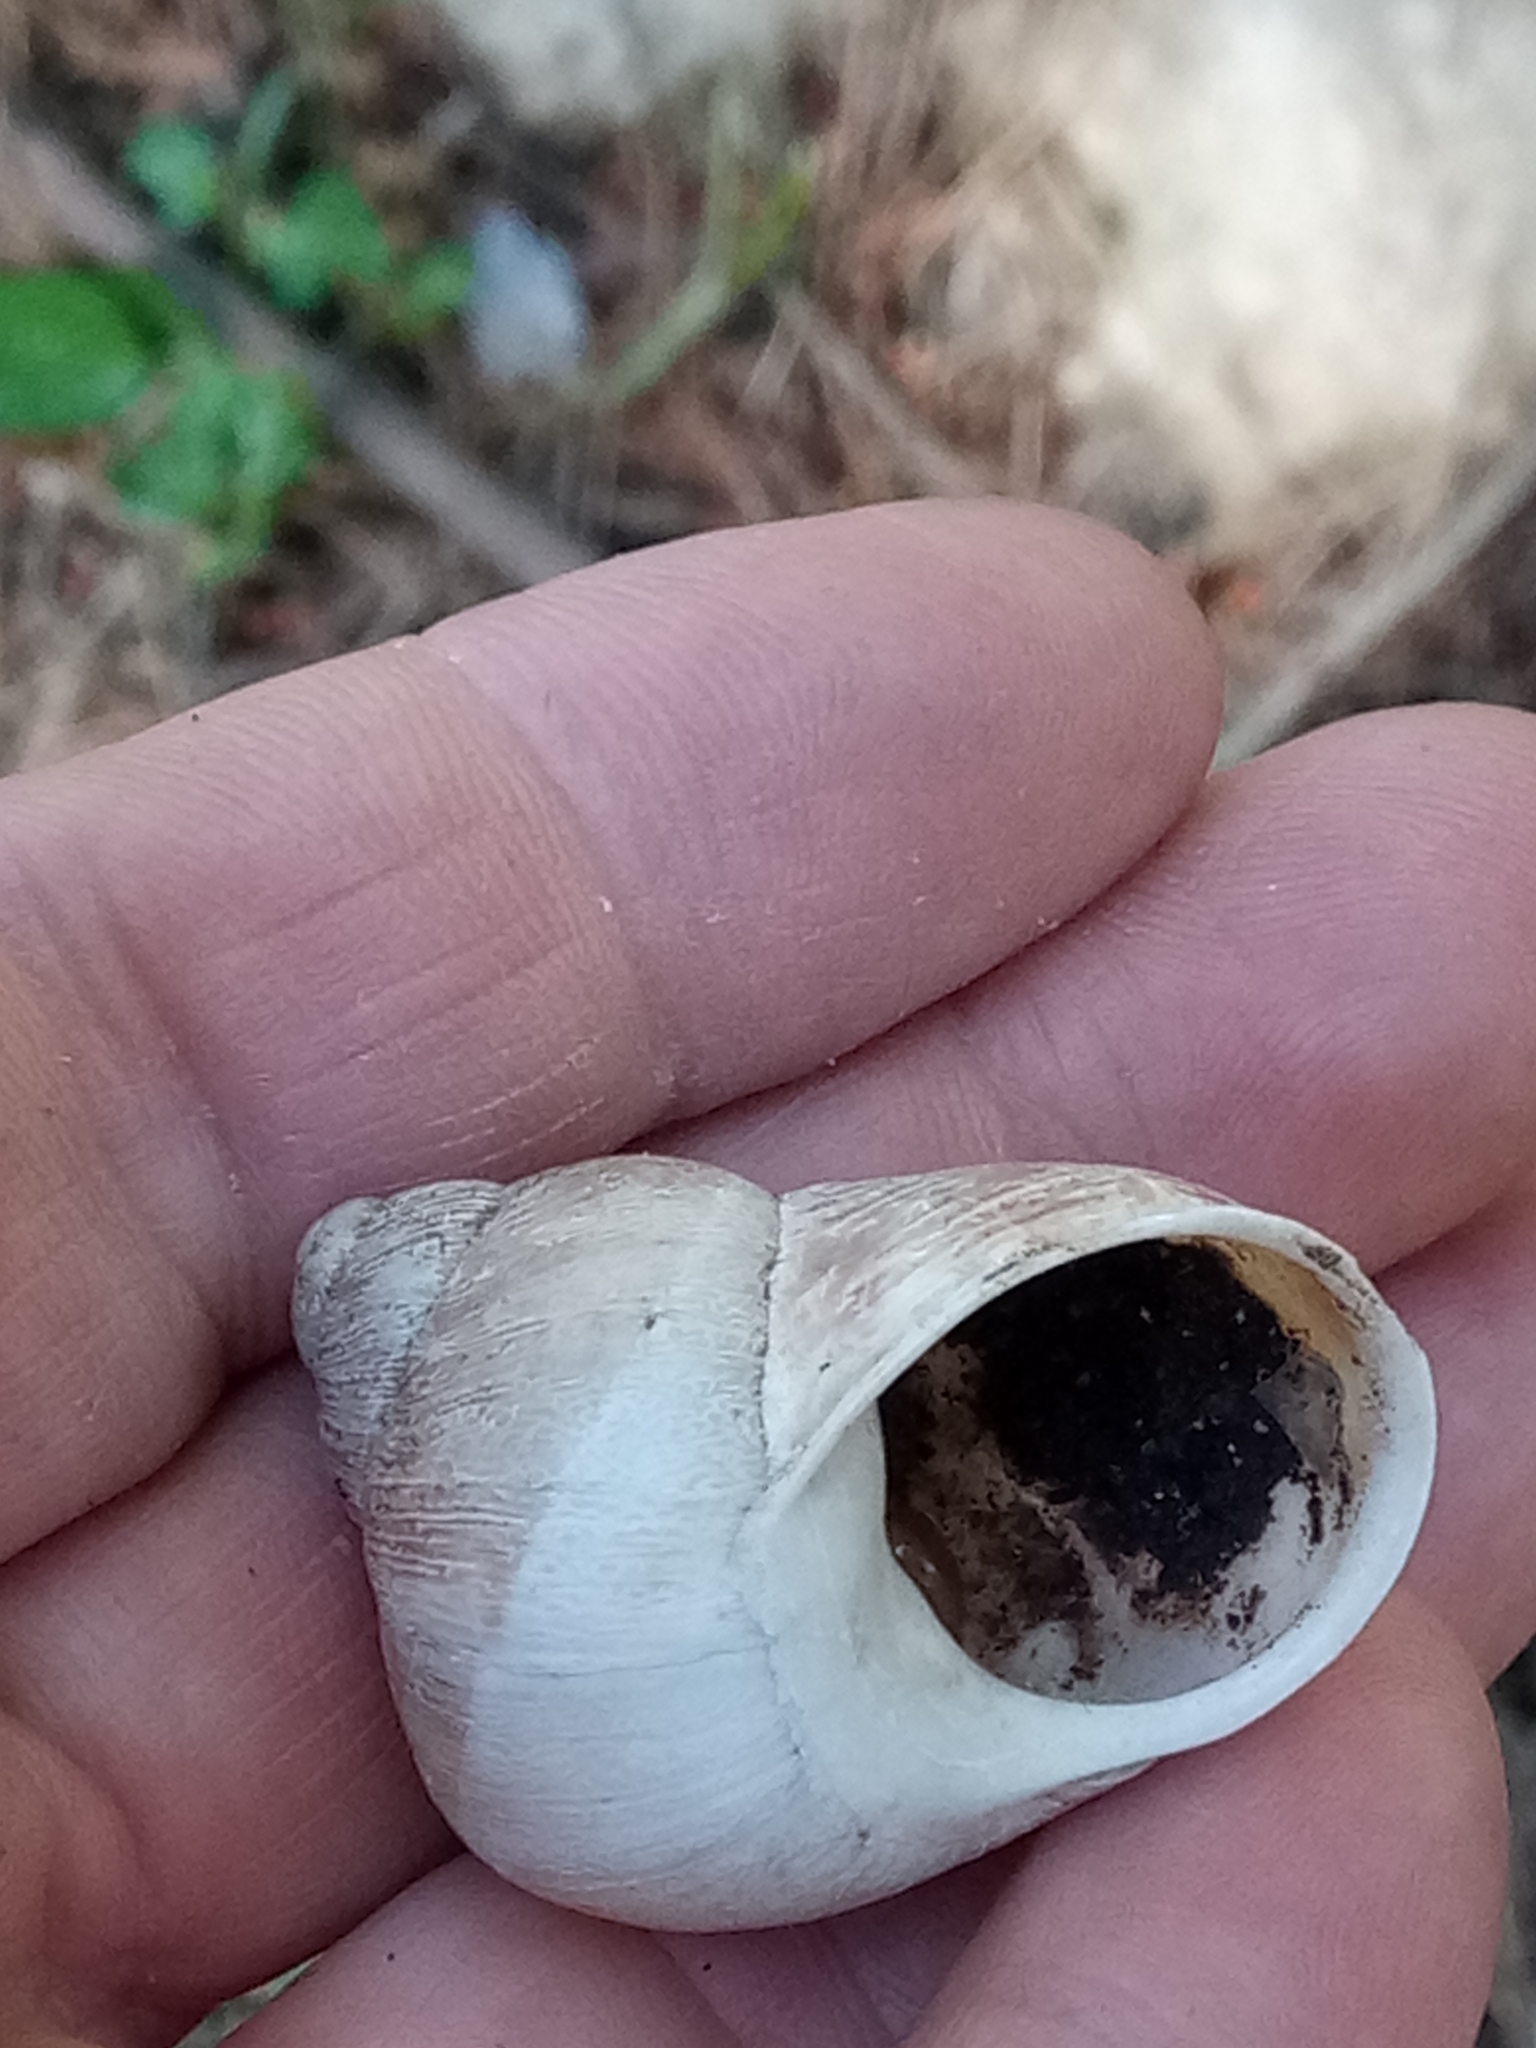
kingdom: Animalia
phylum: Mollusca
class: Gastropoda
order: Stylommatophora
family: Helicidae
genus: Cornu
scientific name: Cornu aspersum
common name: Brown garden snail
